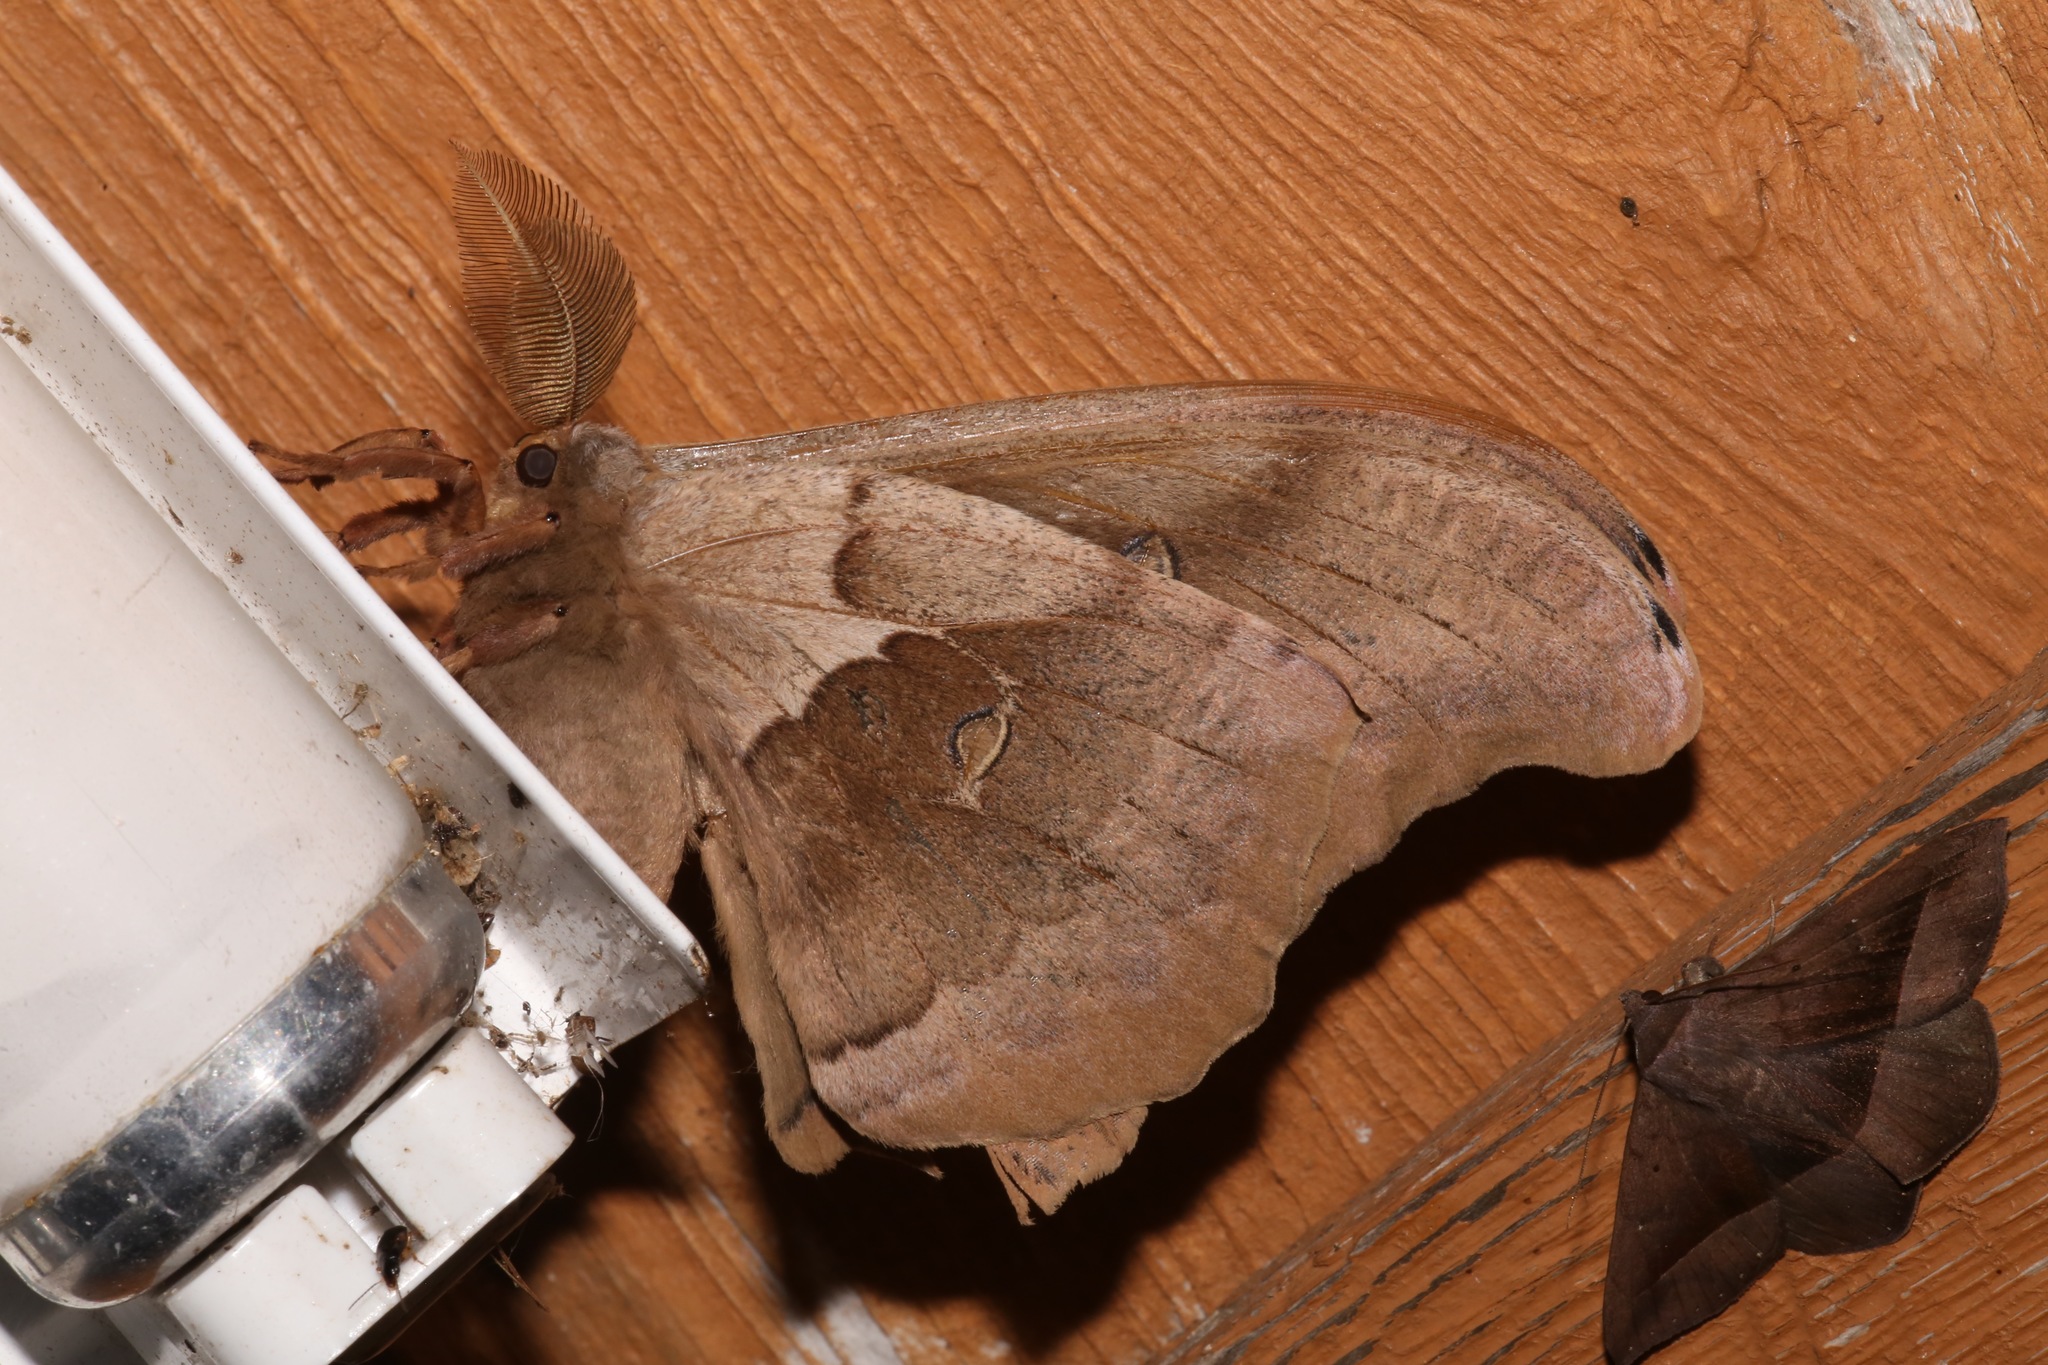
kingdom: Animalia
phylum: Arthropoda
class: Insecta
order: Lepidoptera
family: Saturniidae
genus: Antheraea
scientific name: Antheraea polyphemus
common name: Polyphemus moth
